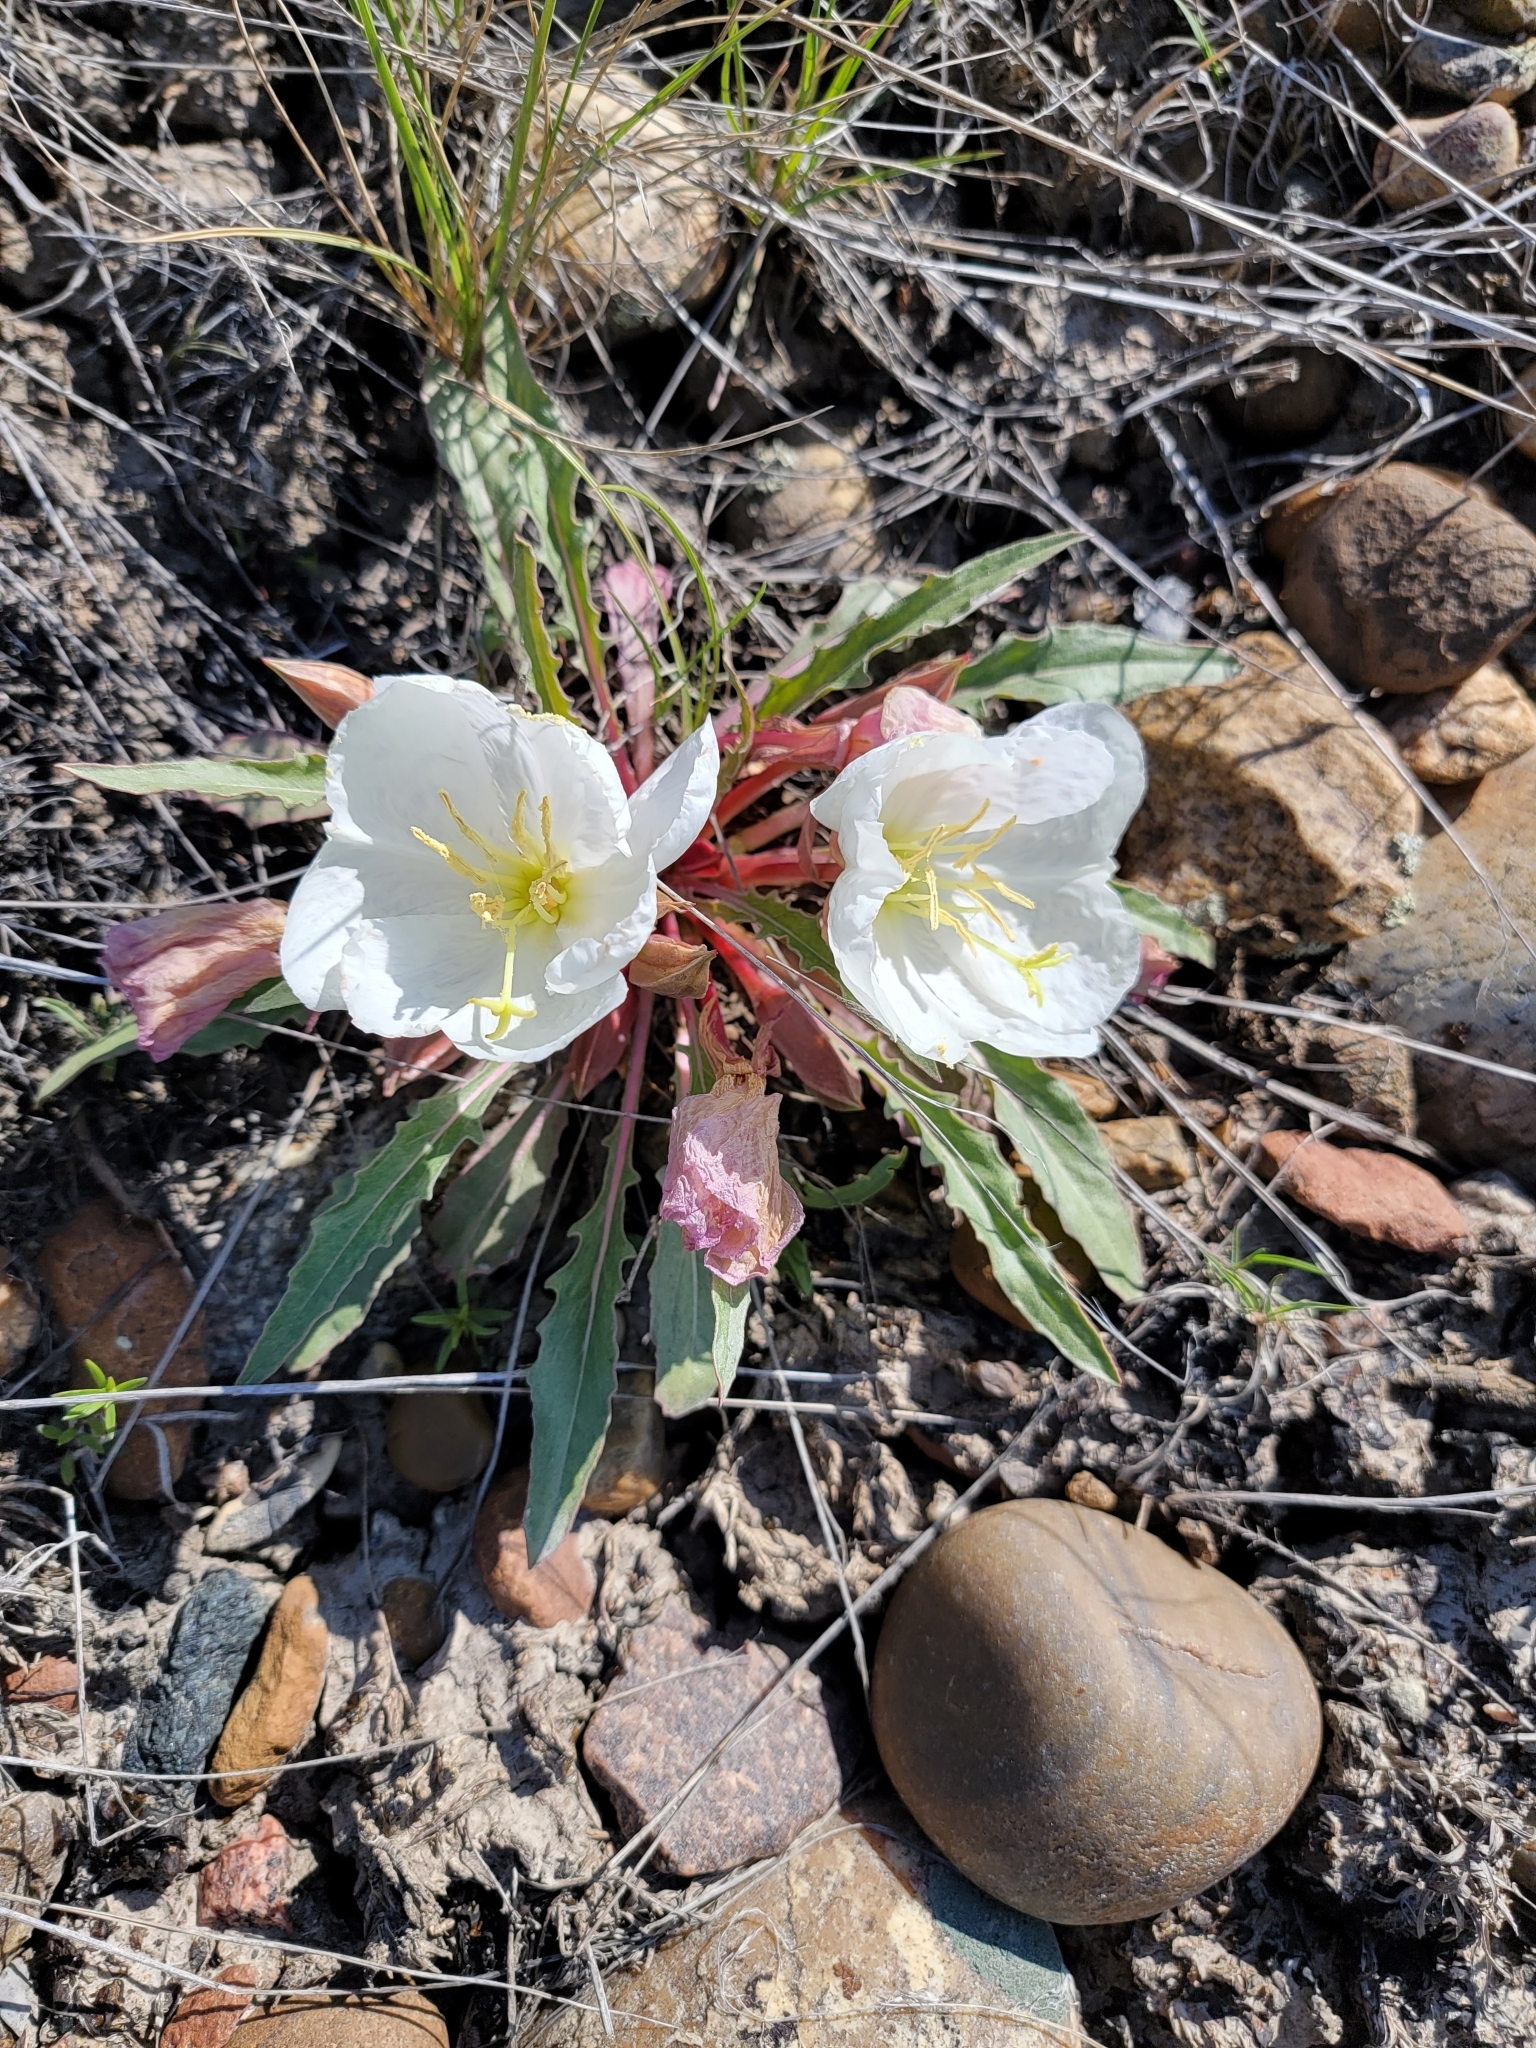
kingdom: Plantae
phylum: Tracheophyta
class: Magnoliopsida
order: Myrtales
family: Onagraceae
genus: Oenothera
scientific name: Oenothera cespitosa
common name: Tufted evening-primrose
